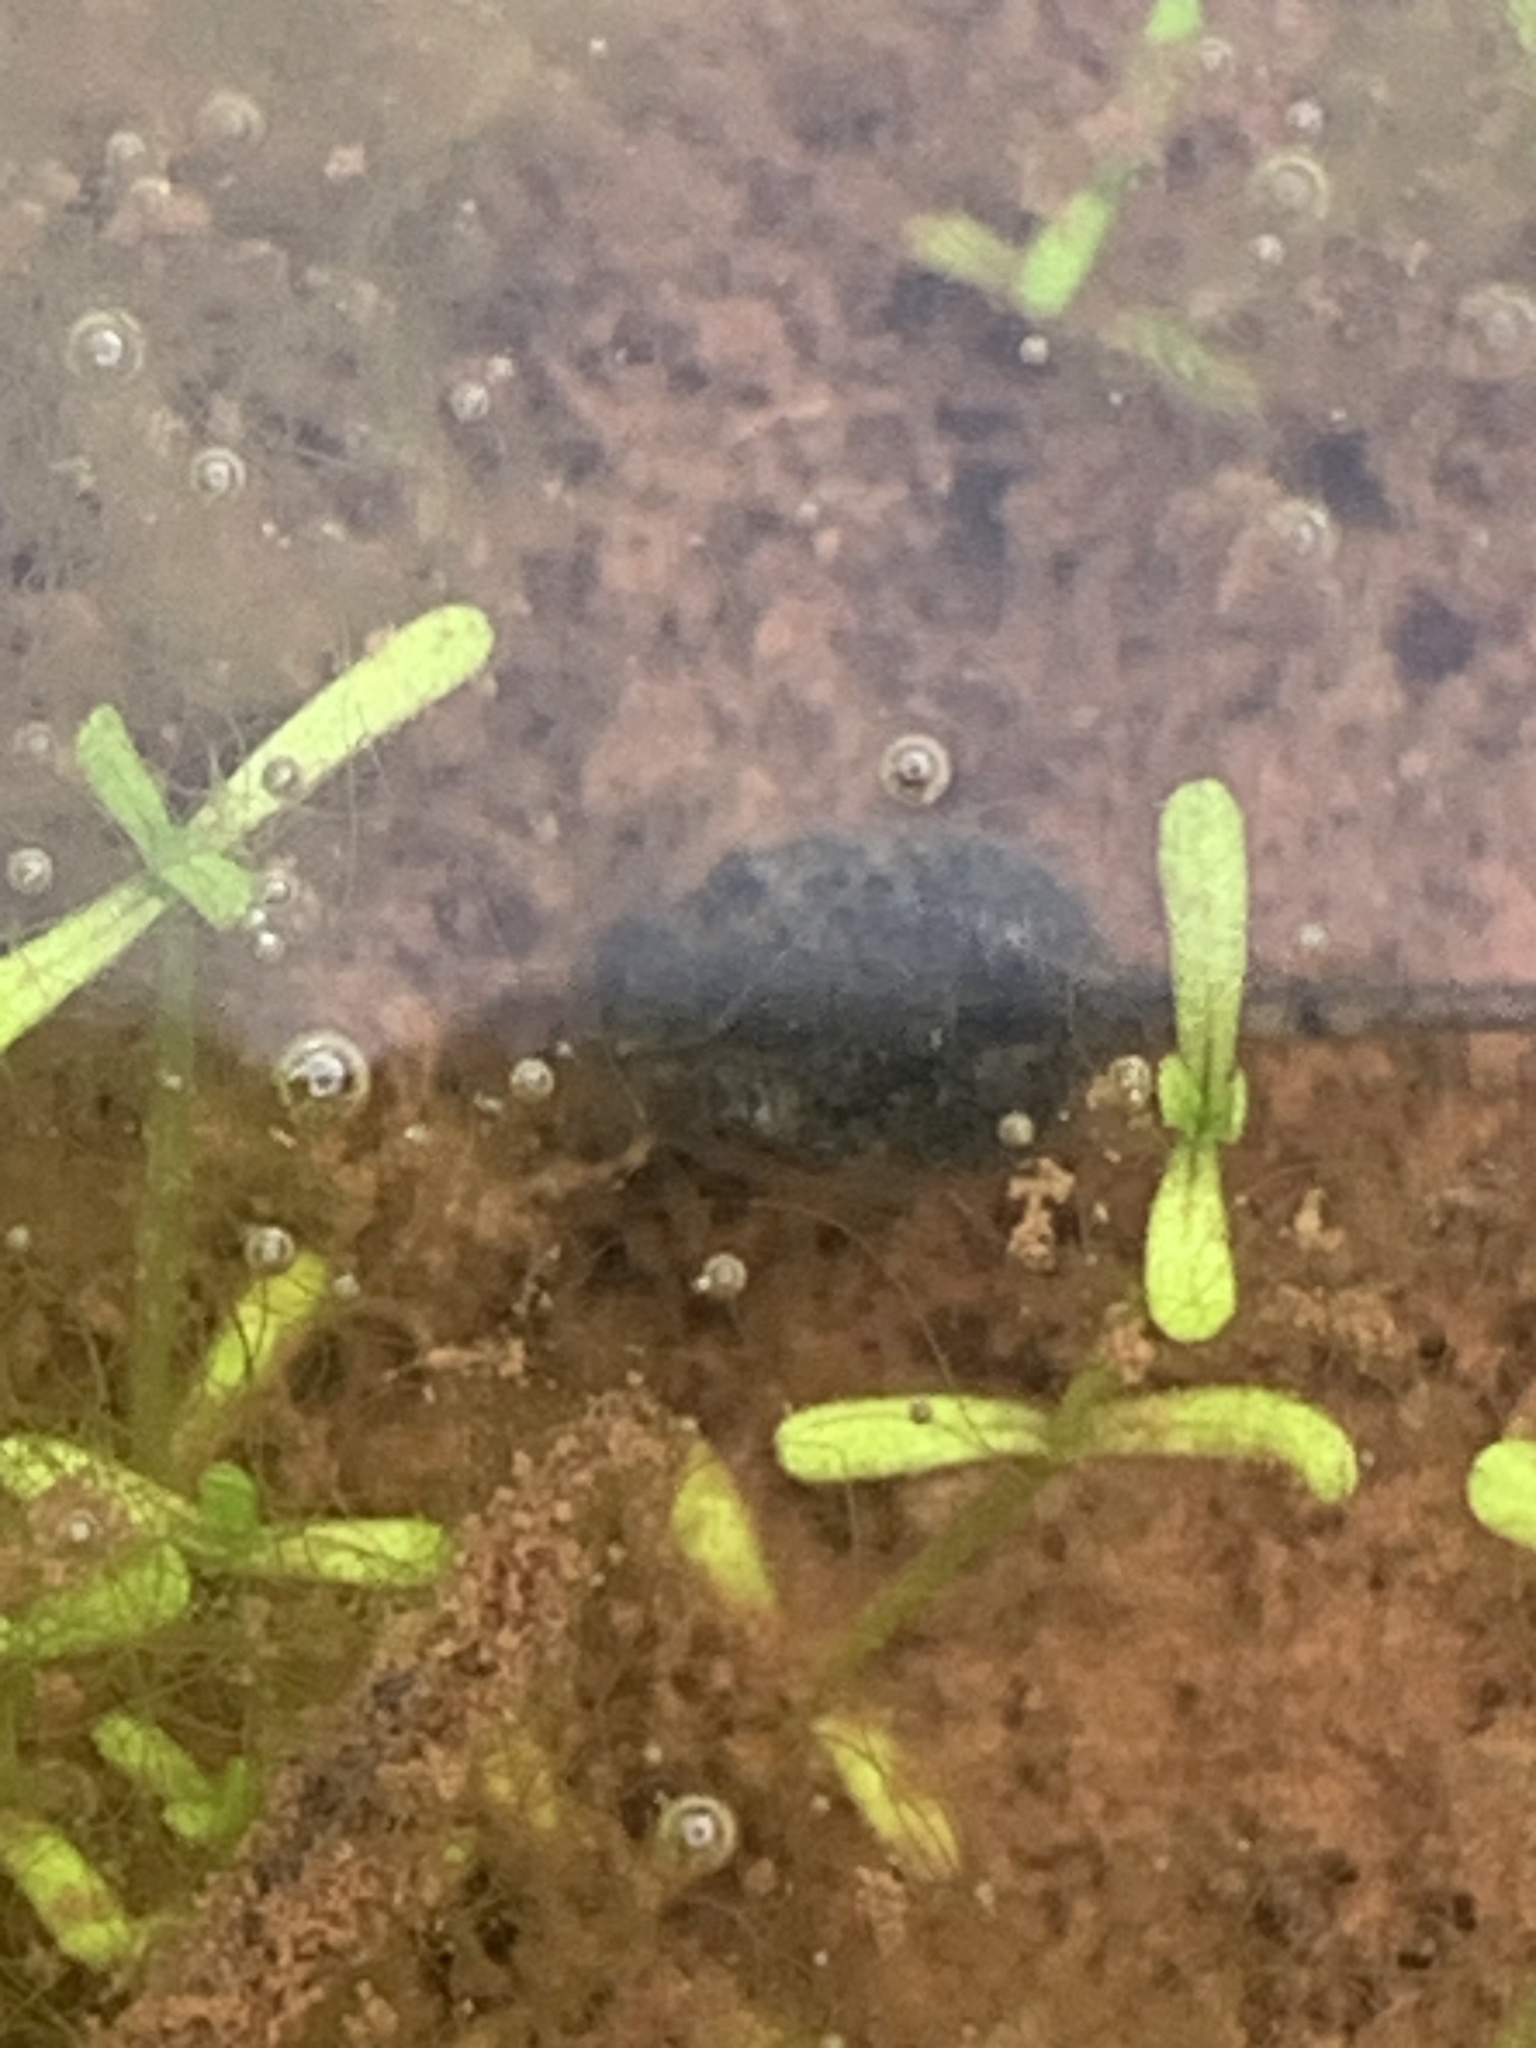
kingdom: Animalia
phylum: Chordata
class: Amphibia
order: Anura
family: Hylidae
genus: Pseudacris
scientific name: Pseudacris regilla
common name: Pacific chorus frog
